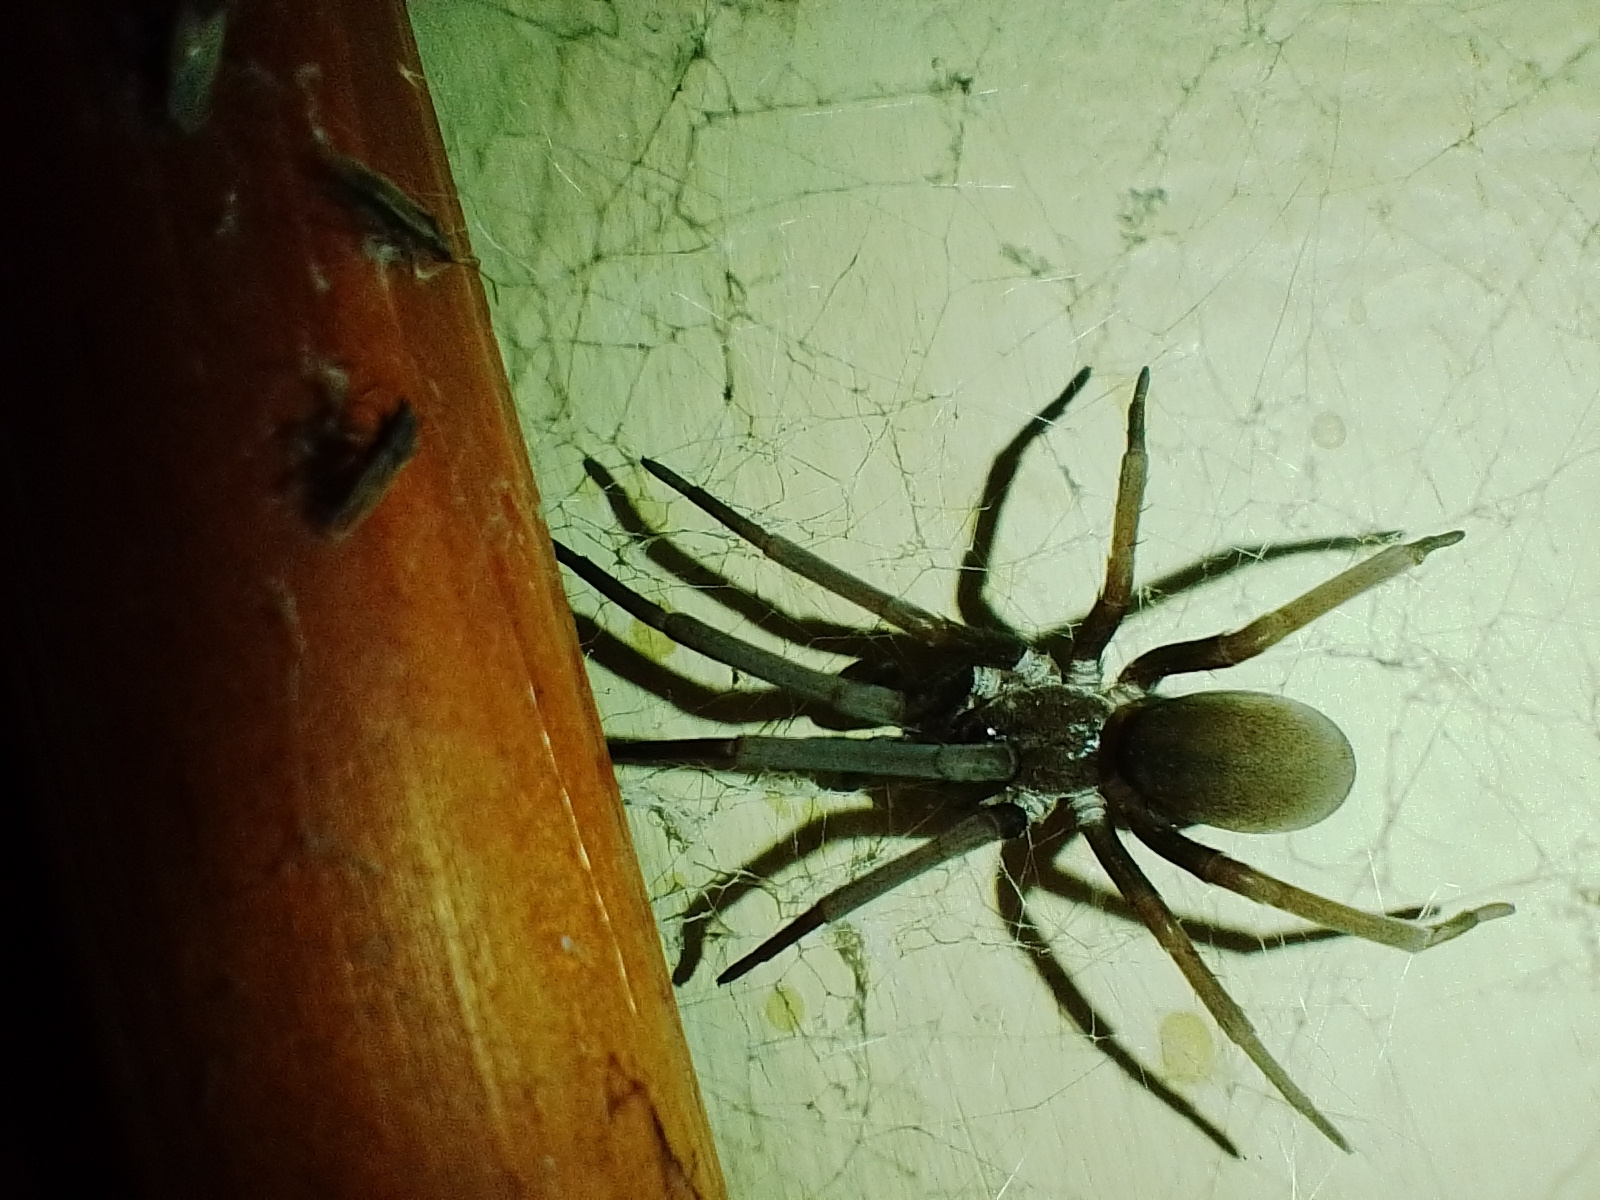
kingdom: Animalia
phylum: Arthropoda
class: Arachnida
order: Araneae
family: Filistatidae
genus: Kukulcania
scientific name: Kukulcania hibernalis
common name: Crevice weaver
